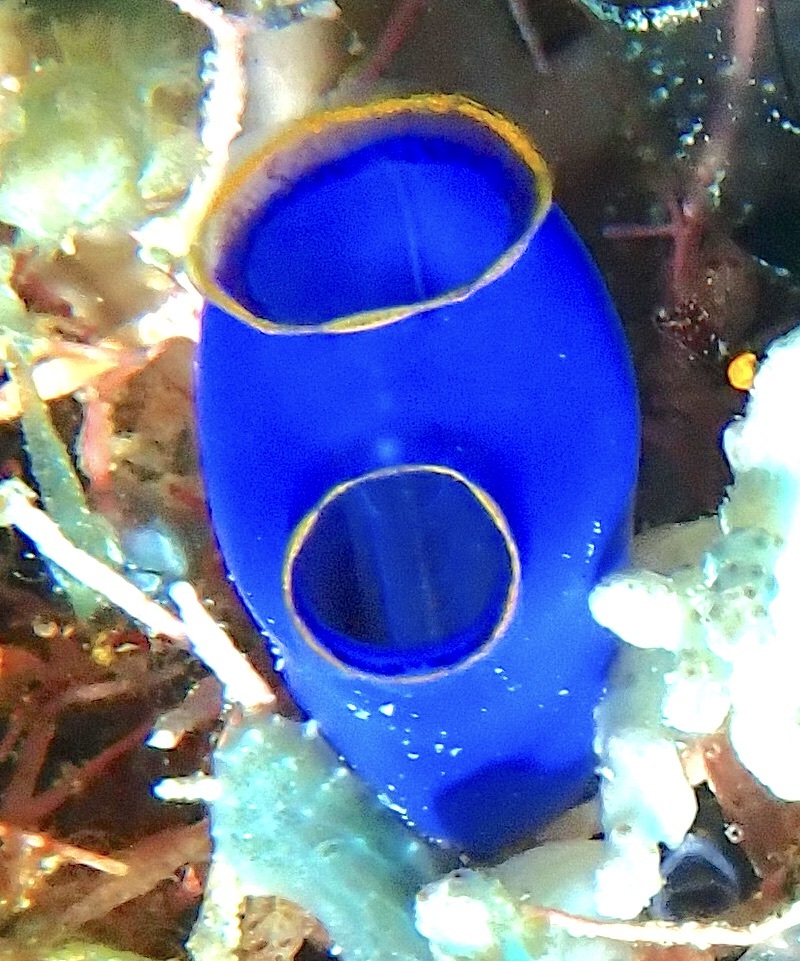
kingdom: Animalia
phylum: Chordata
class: Ascidiacea
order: Aplousobranchia
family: Diazonidae
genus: Rhopalaea
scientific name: Rhopalaea fusca
